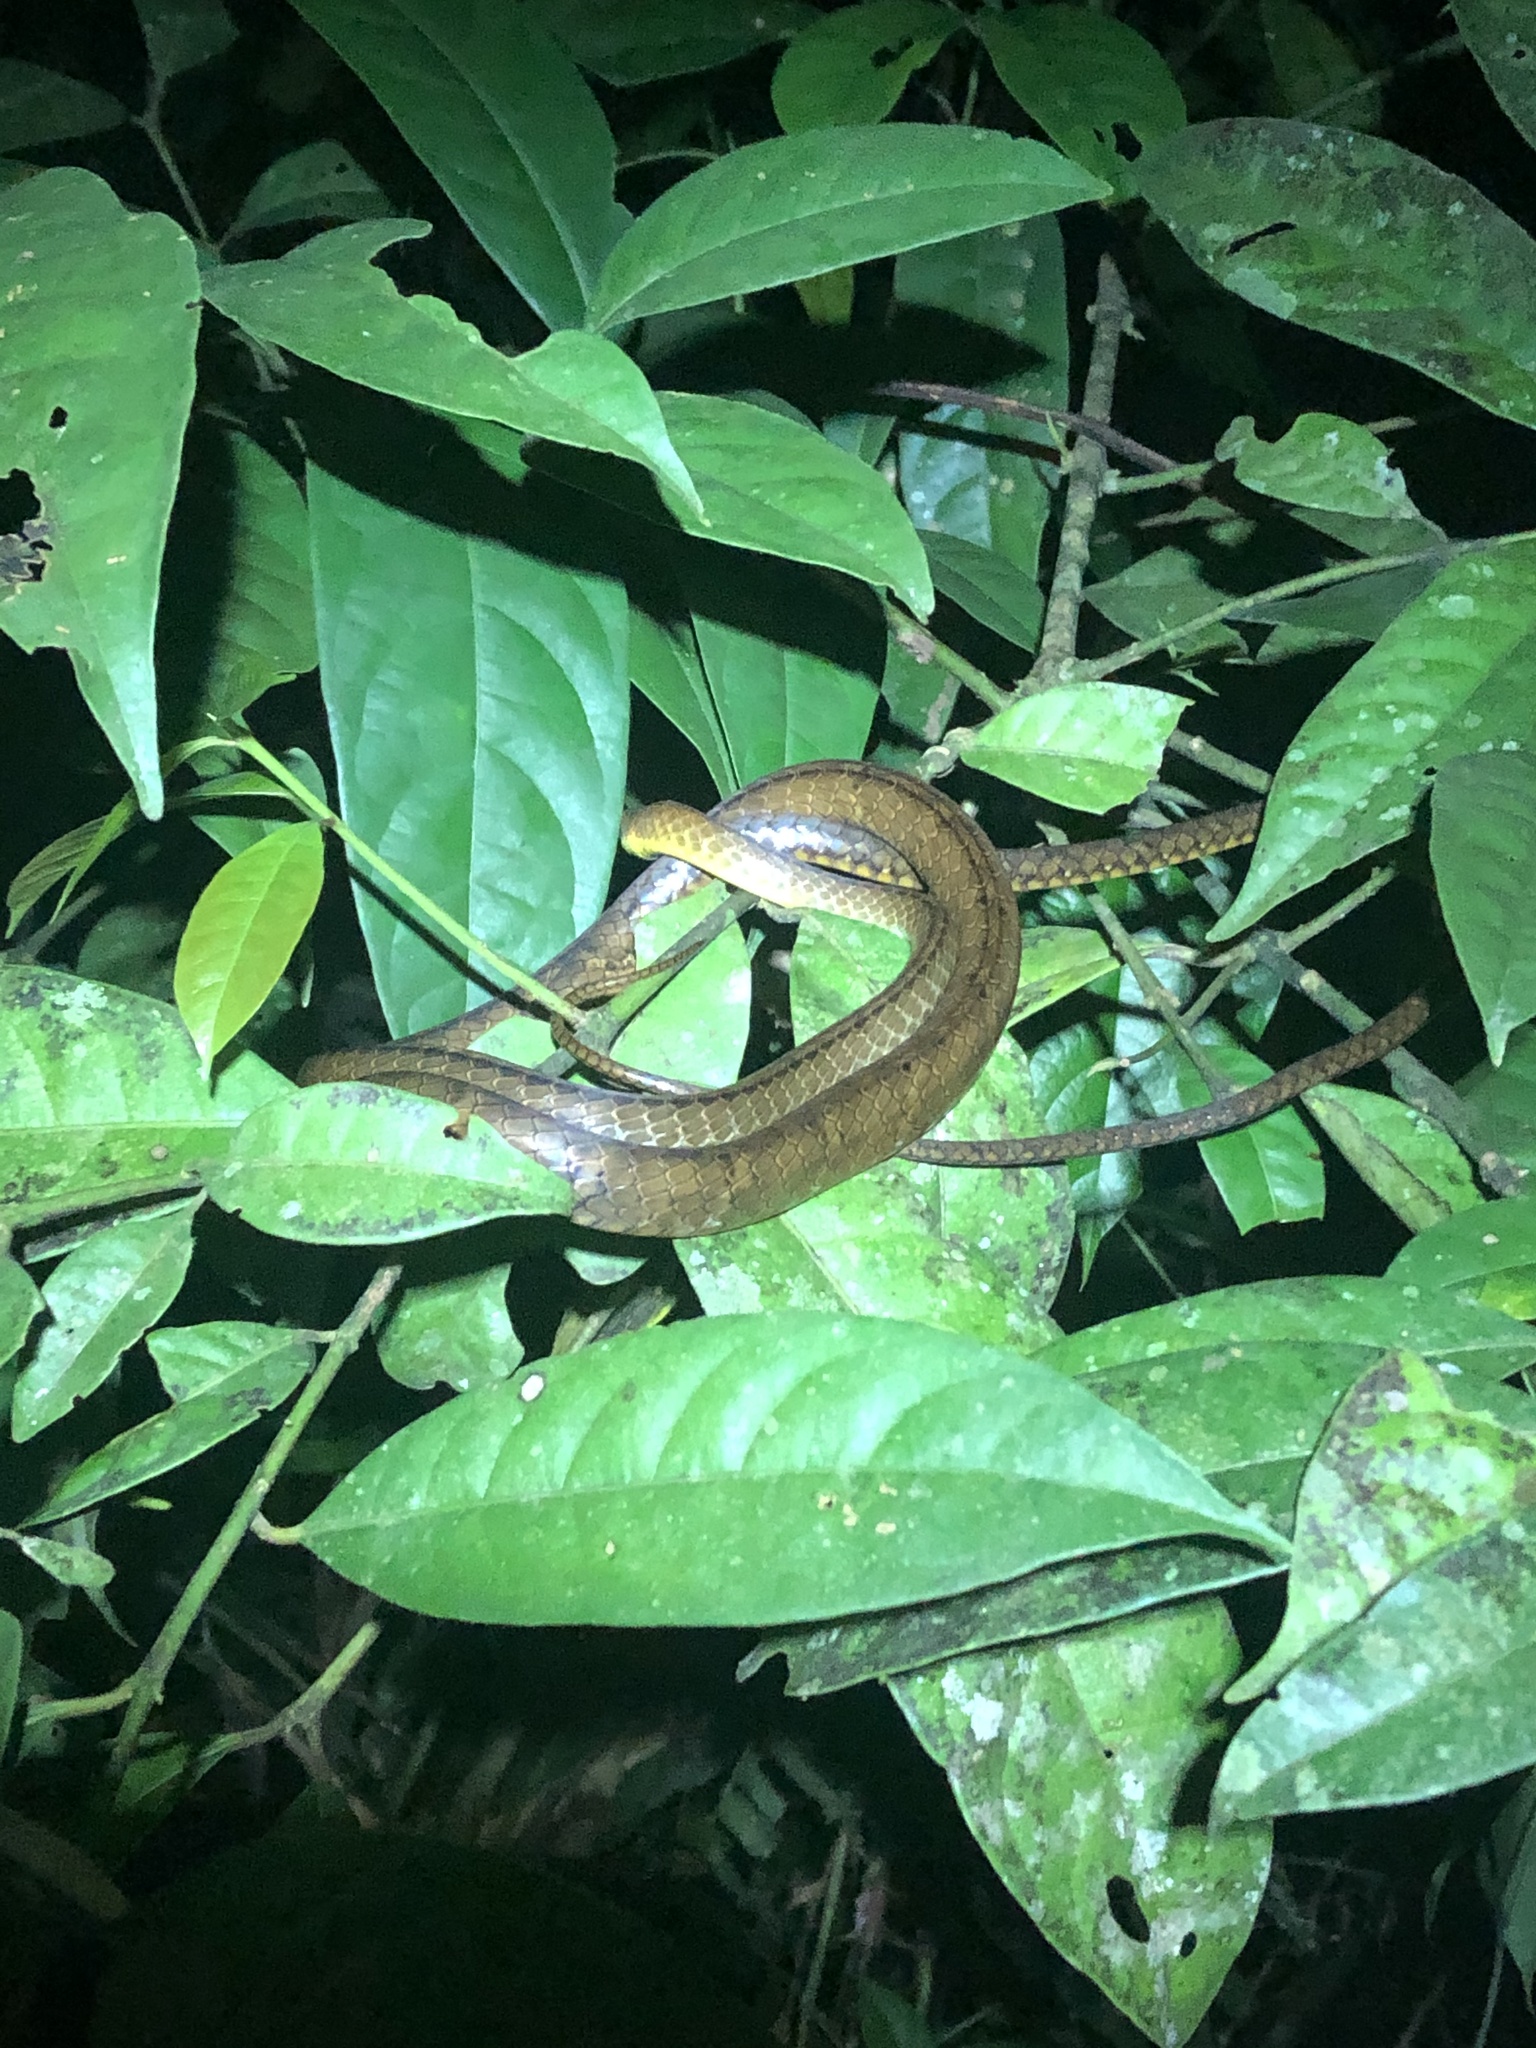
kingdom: Animalia
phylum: Chordata
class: Squamata
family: Colubridae
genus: Chironius
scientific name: Chironius fuscus
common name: Brown sipo
